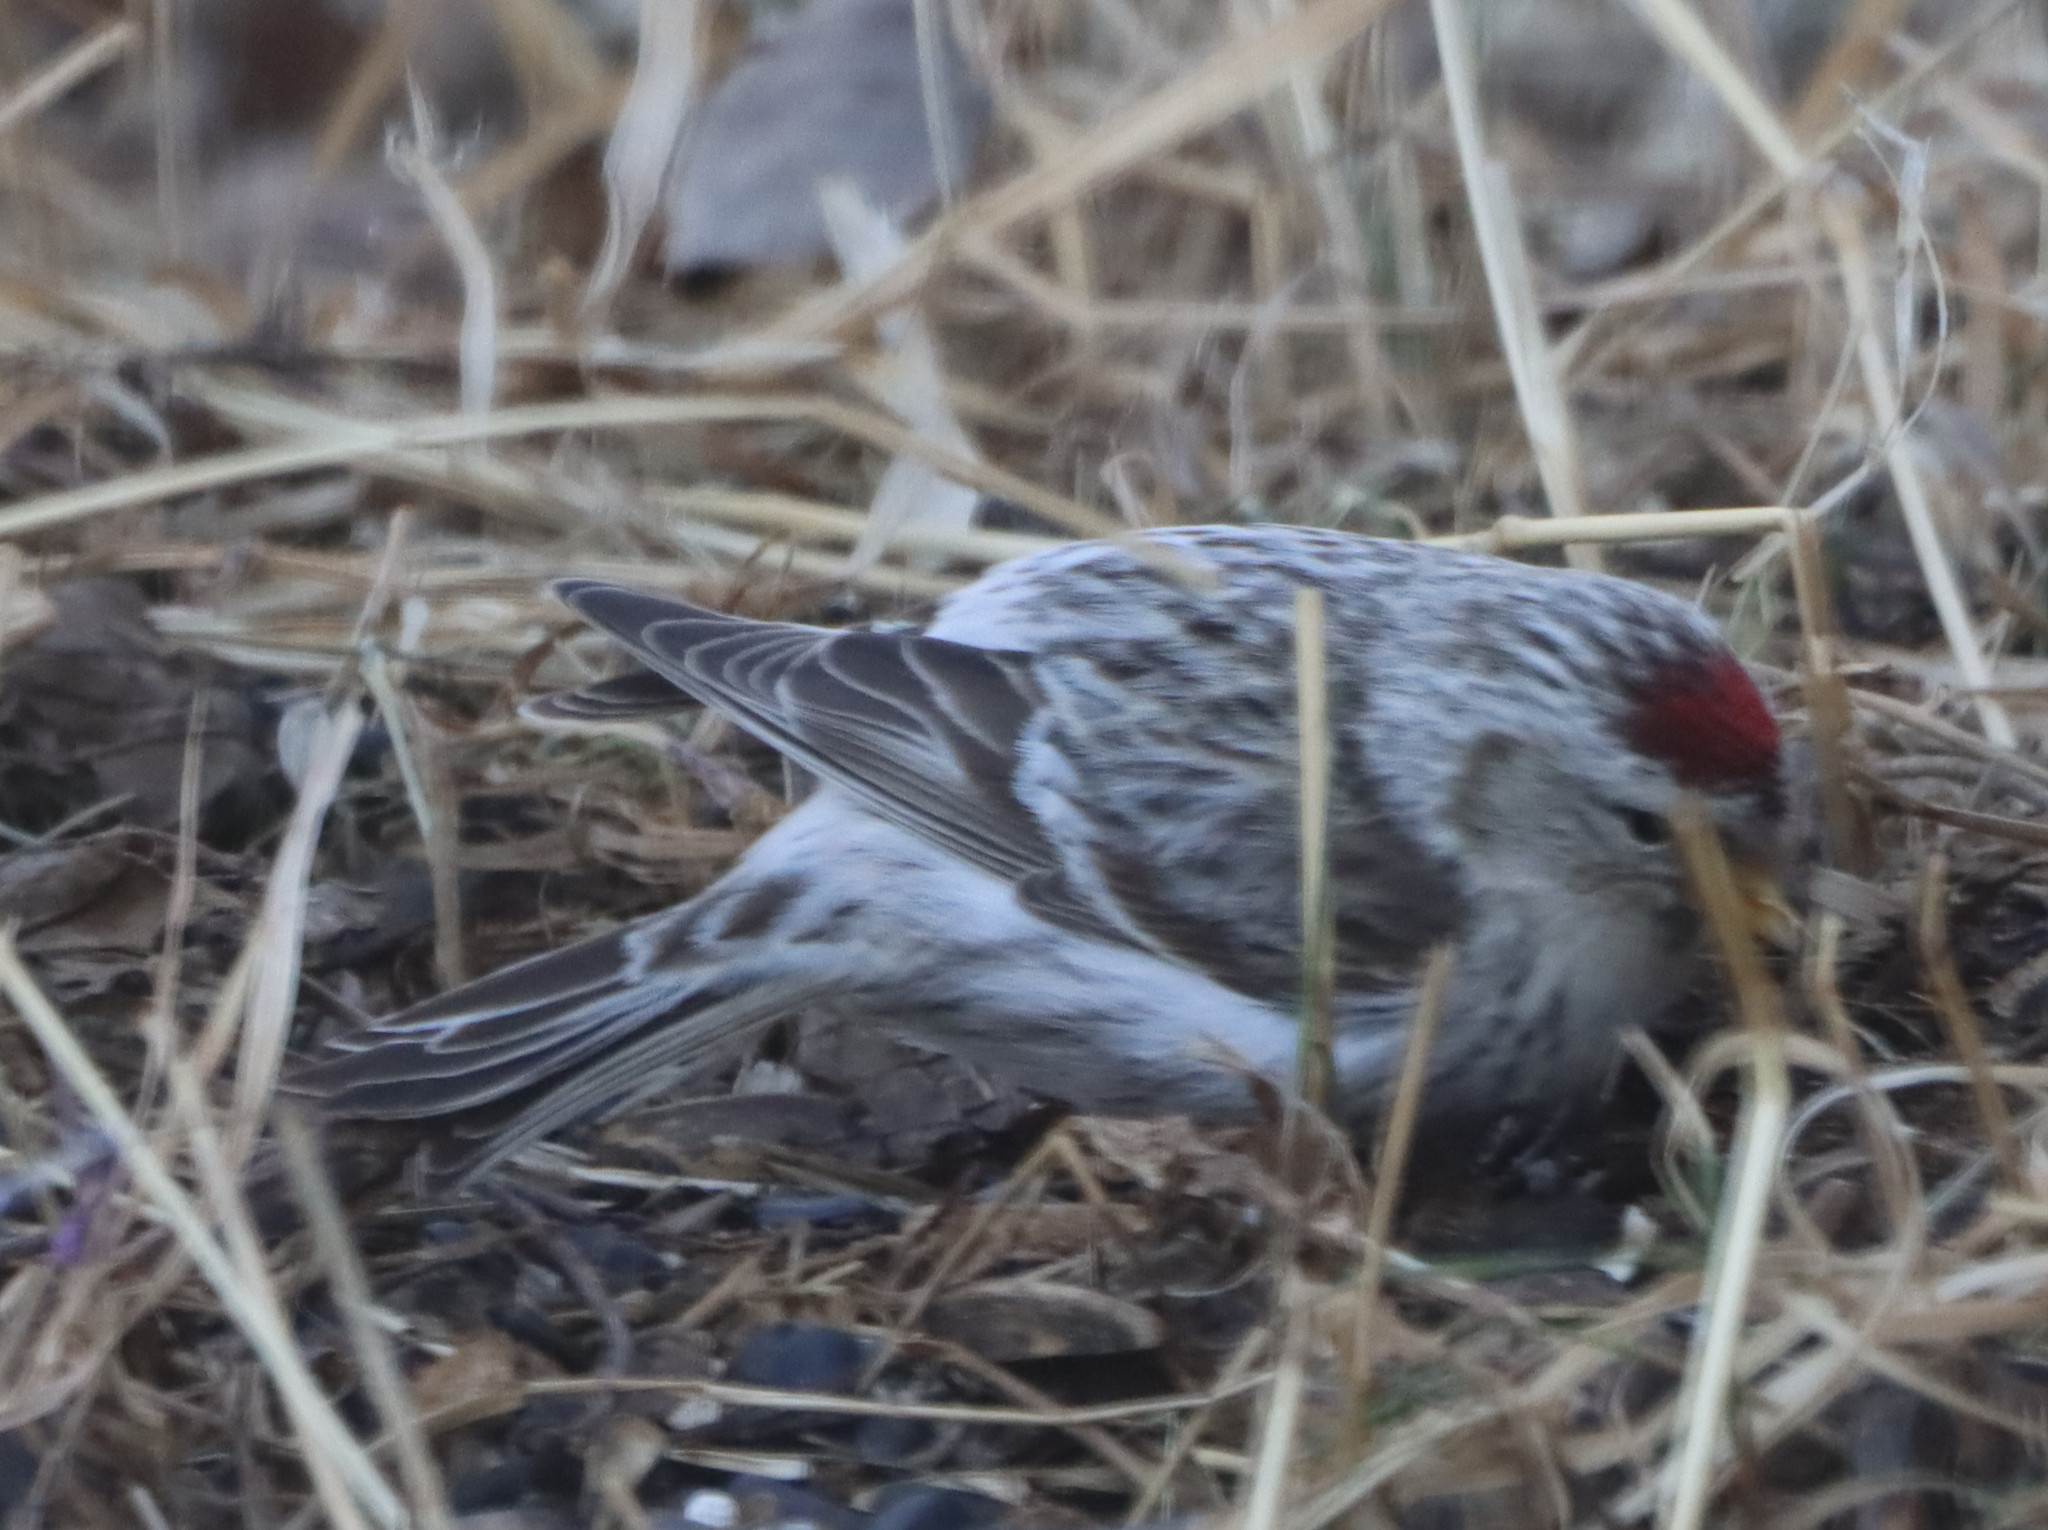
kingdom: Animalia
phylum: Chordata
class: Aves
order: Passeriformes
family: Fringillidae
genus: Acanthis
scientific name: Acanthis hornemanni
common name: Arctic redpoll
